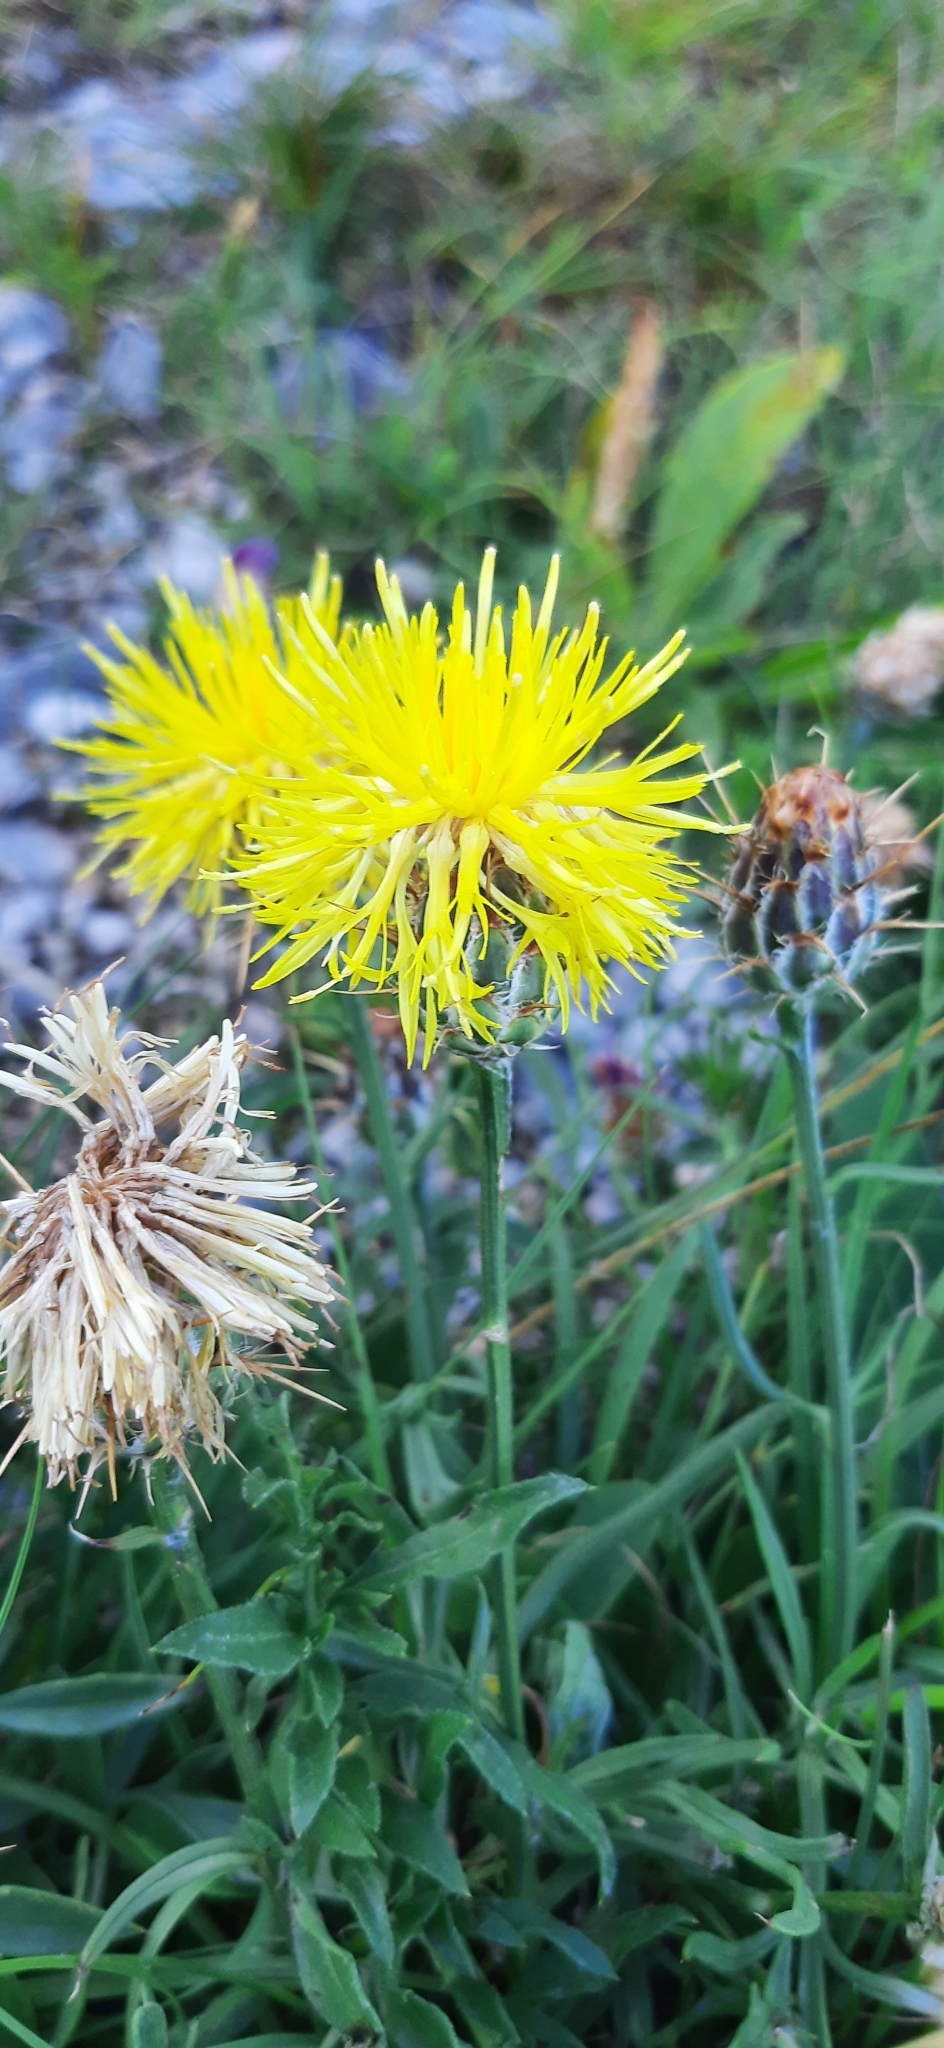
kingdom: Plantae
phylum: Tracheophyta
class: Magnoliopsida
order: Asterales
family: Asteraceae
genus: Centaurea
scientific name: Centaurea rupestris
